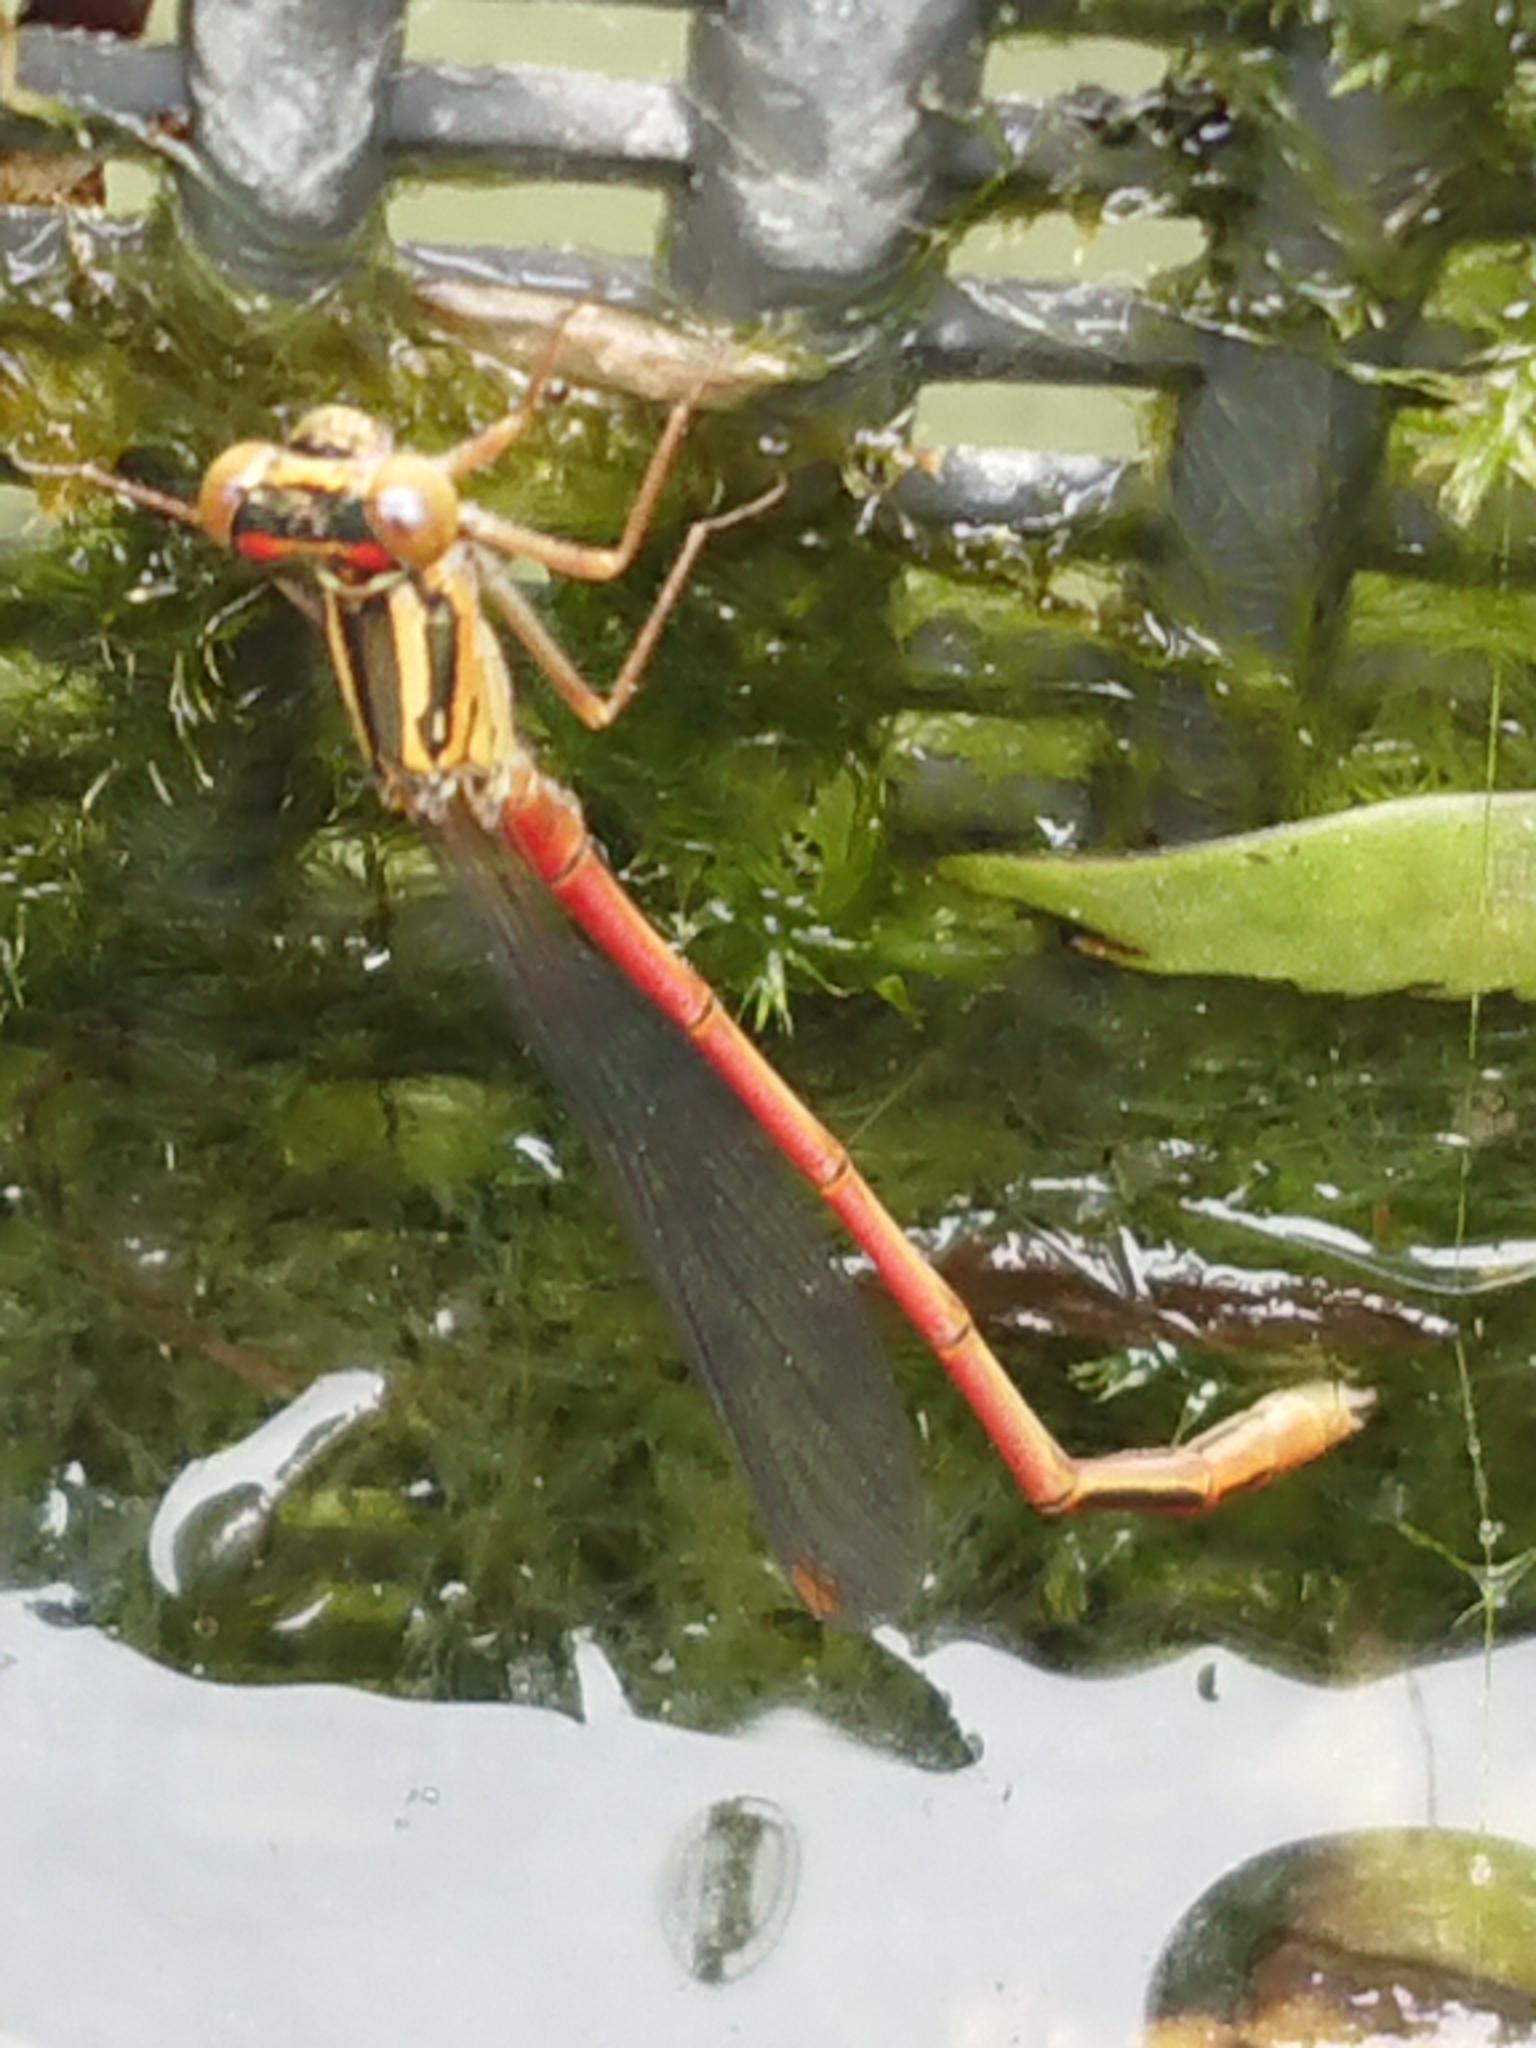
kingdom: Animalia
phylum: Arthropoda
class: Insecta
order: Odonata
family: Coenagrionidae
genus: Xanthocnemis
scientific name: Xanthocnemis zealandica
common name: Common redcoat damselfly
